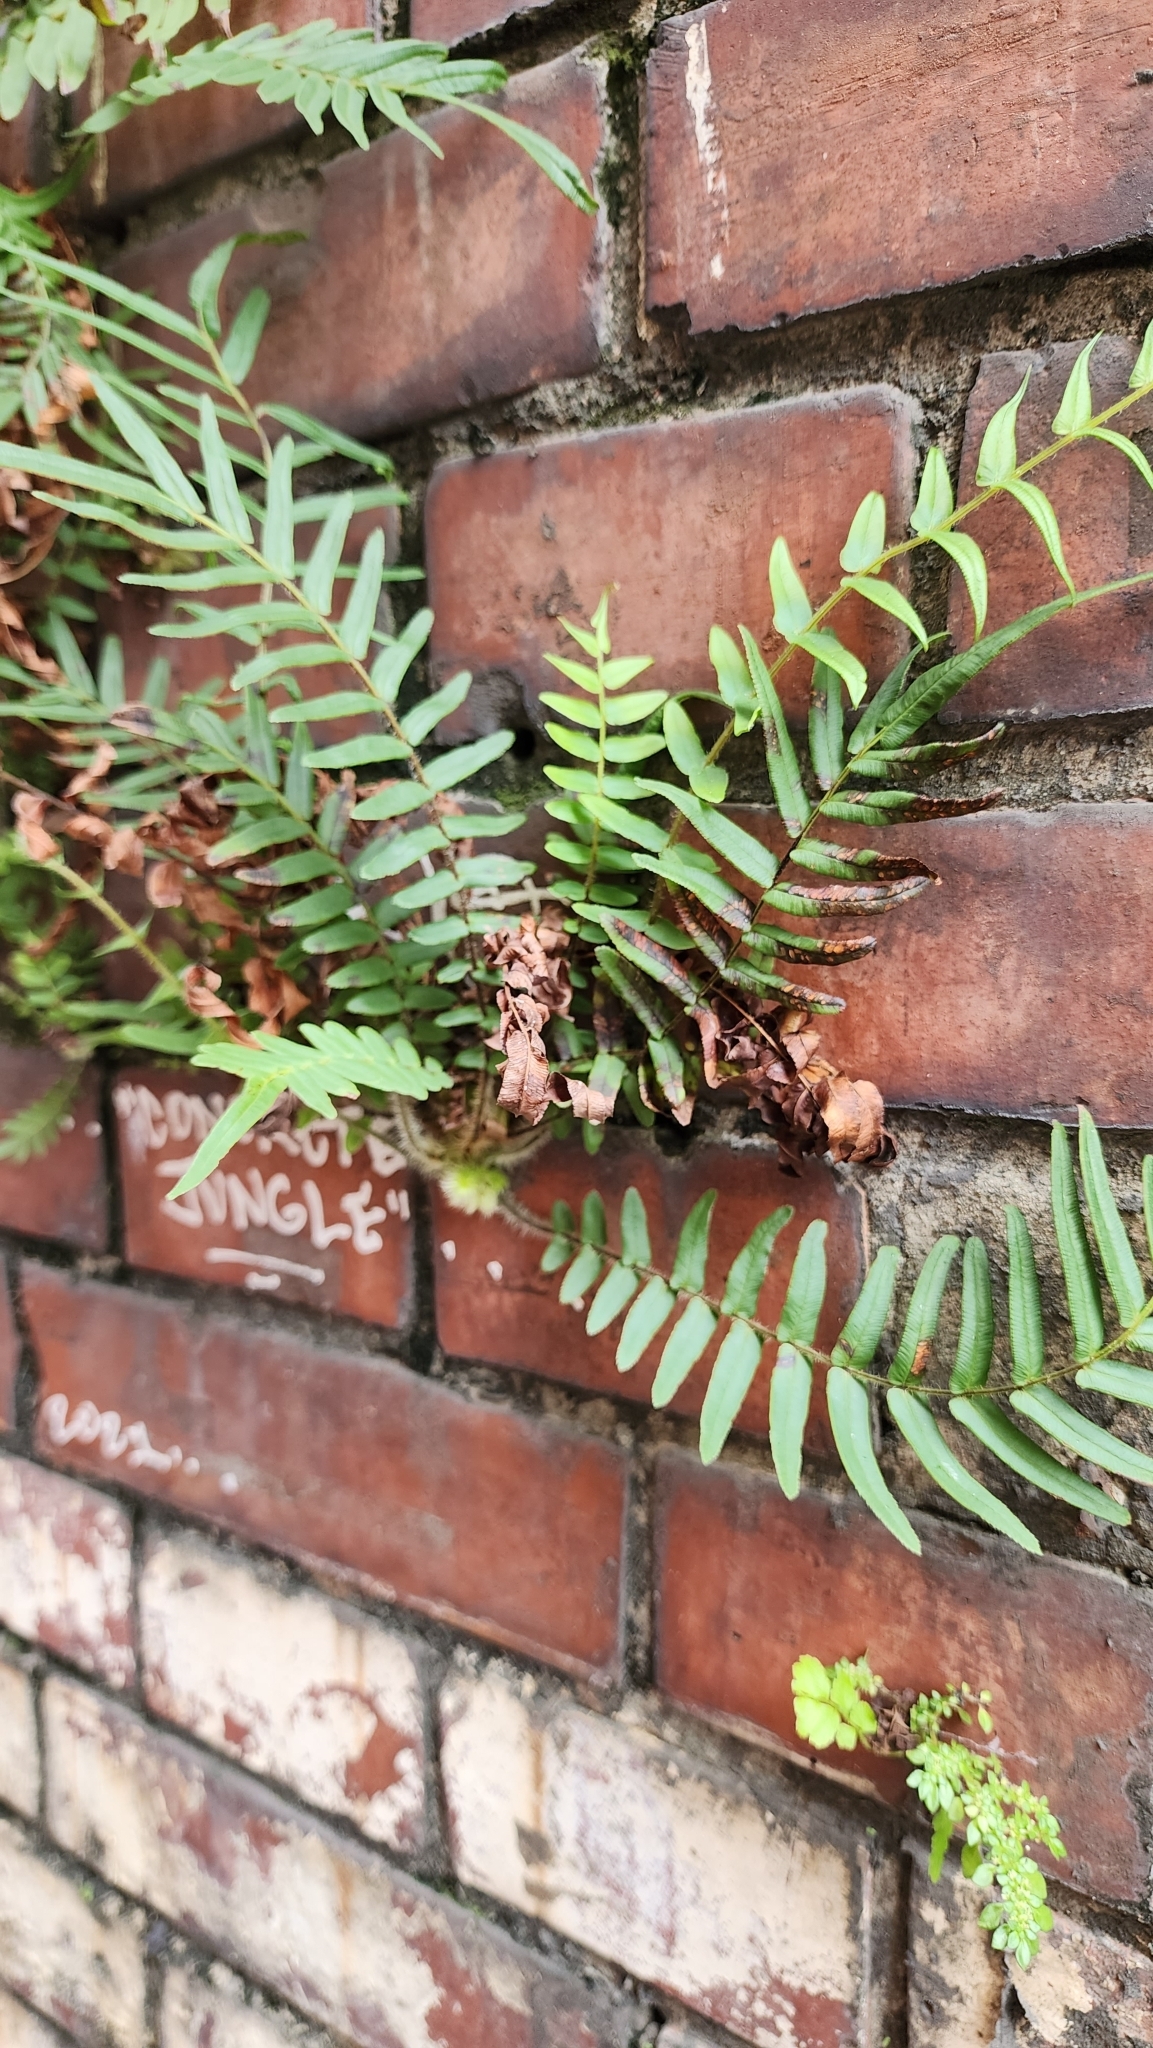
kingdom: Plantae
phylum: Tracheophyta
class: Polypodiopsida
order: Polypodiales
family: Pteridaceae
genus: Pteris
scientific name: Pteris vittata
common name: Ladder brake
